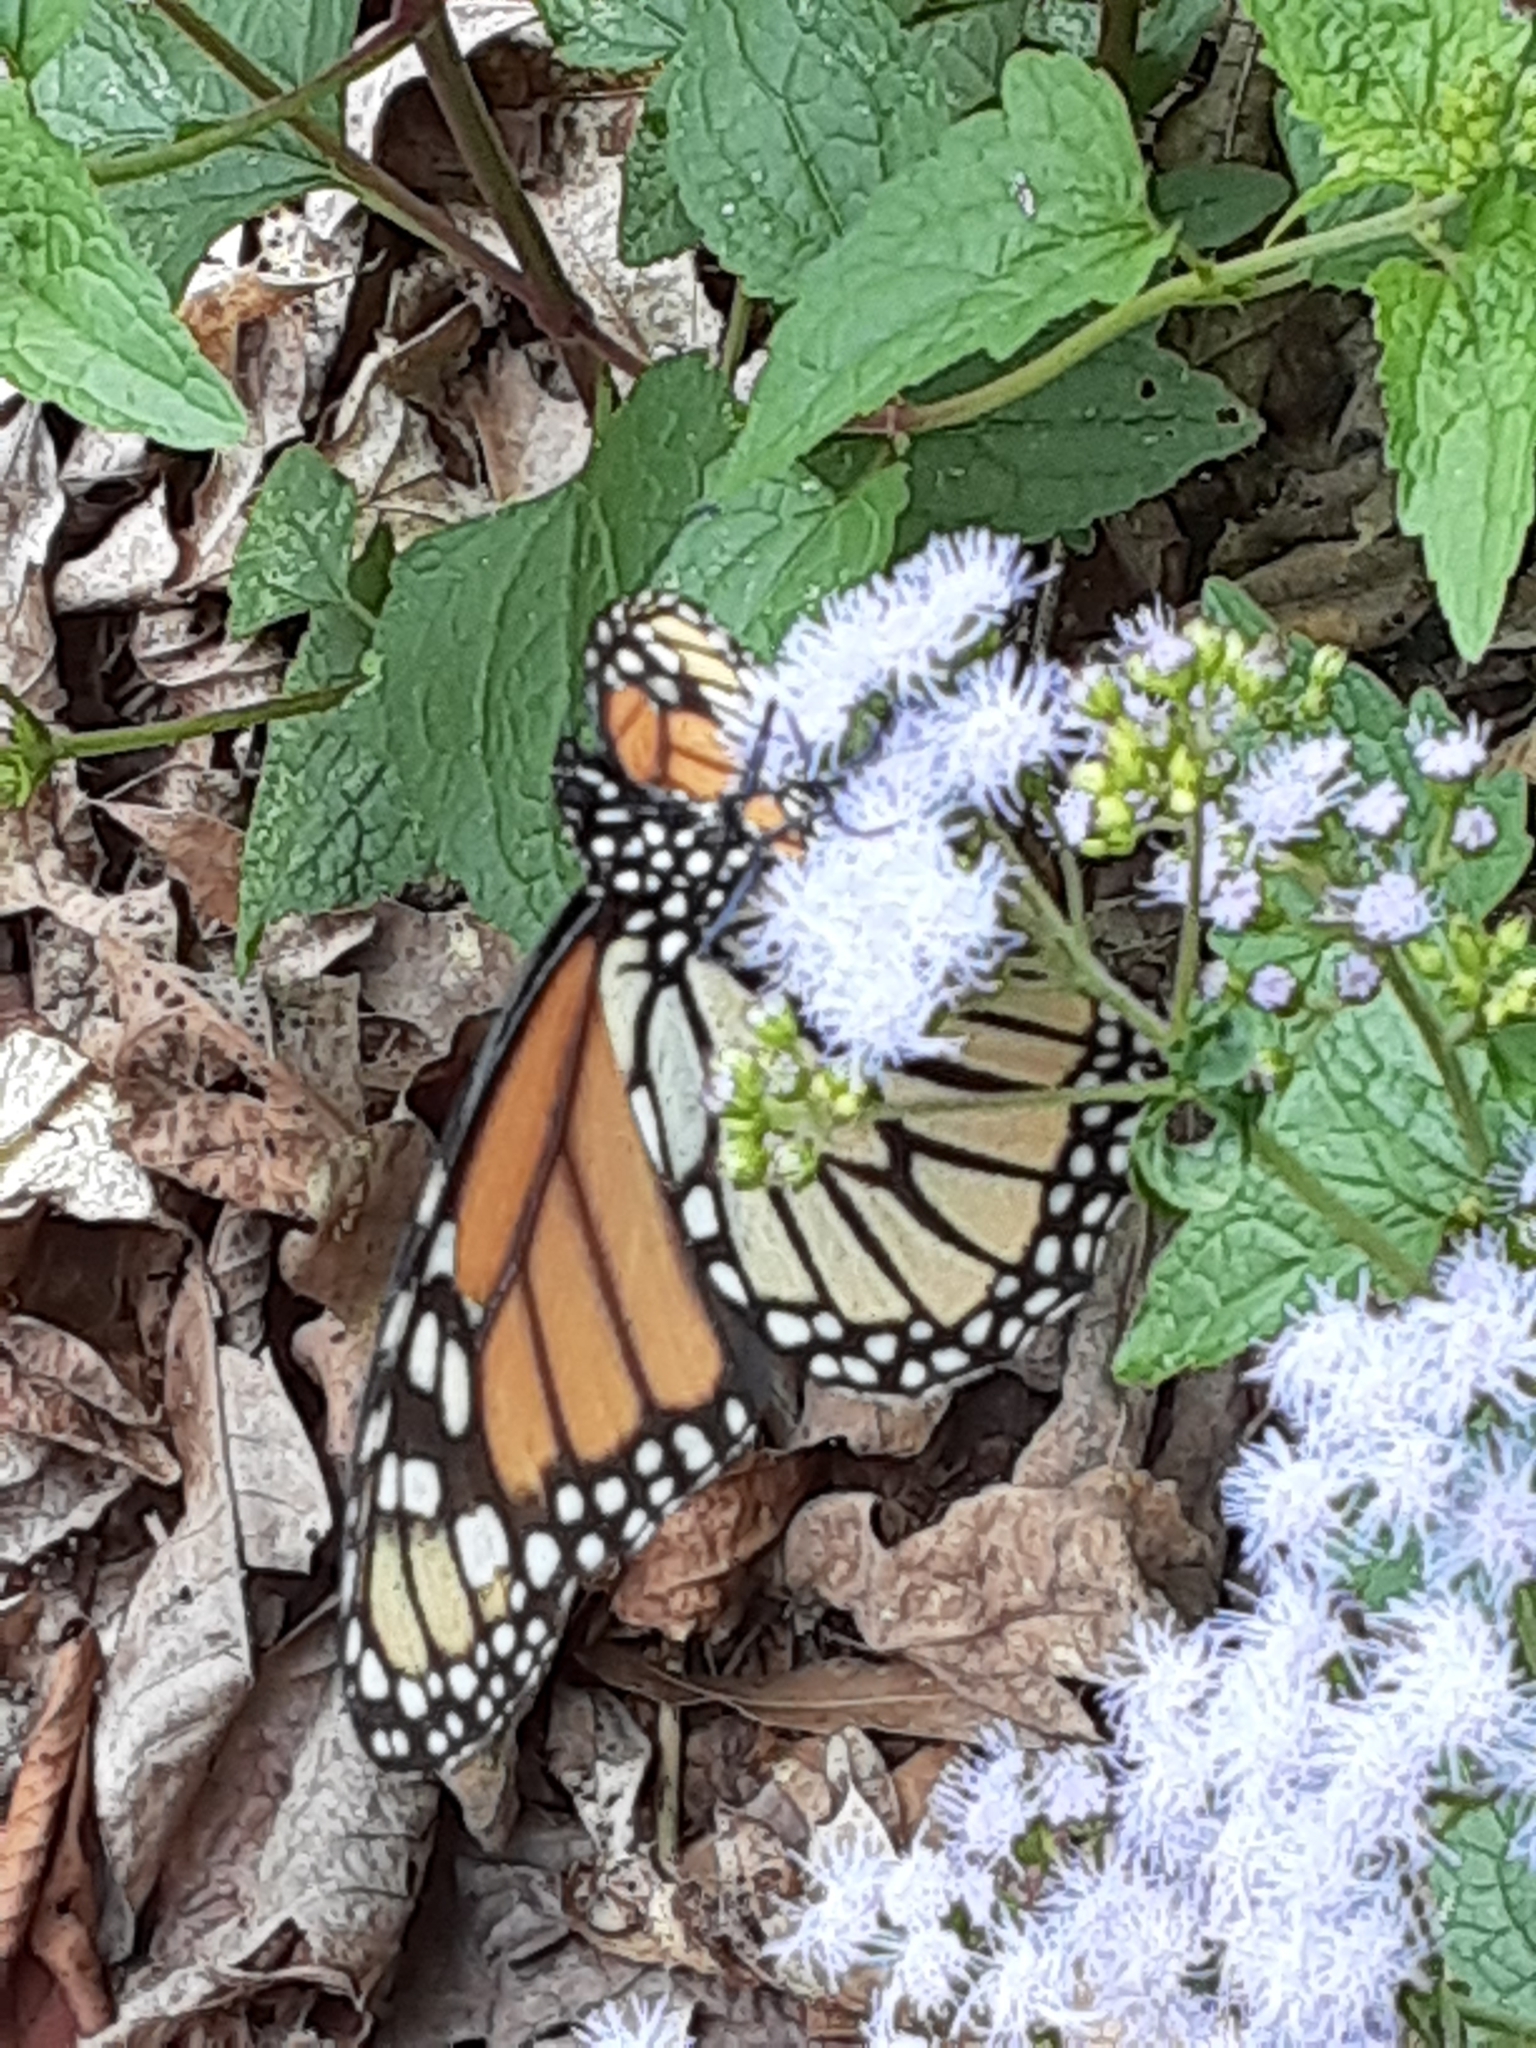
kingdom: Animalia
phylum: Arthropoda
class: Insecta
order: Lepidoptera
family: Nymphalidae
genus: Danaus
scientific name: Danaus plexippus
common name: Monarch
